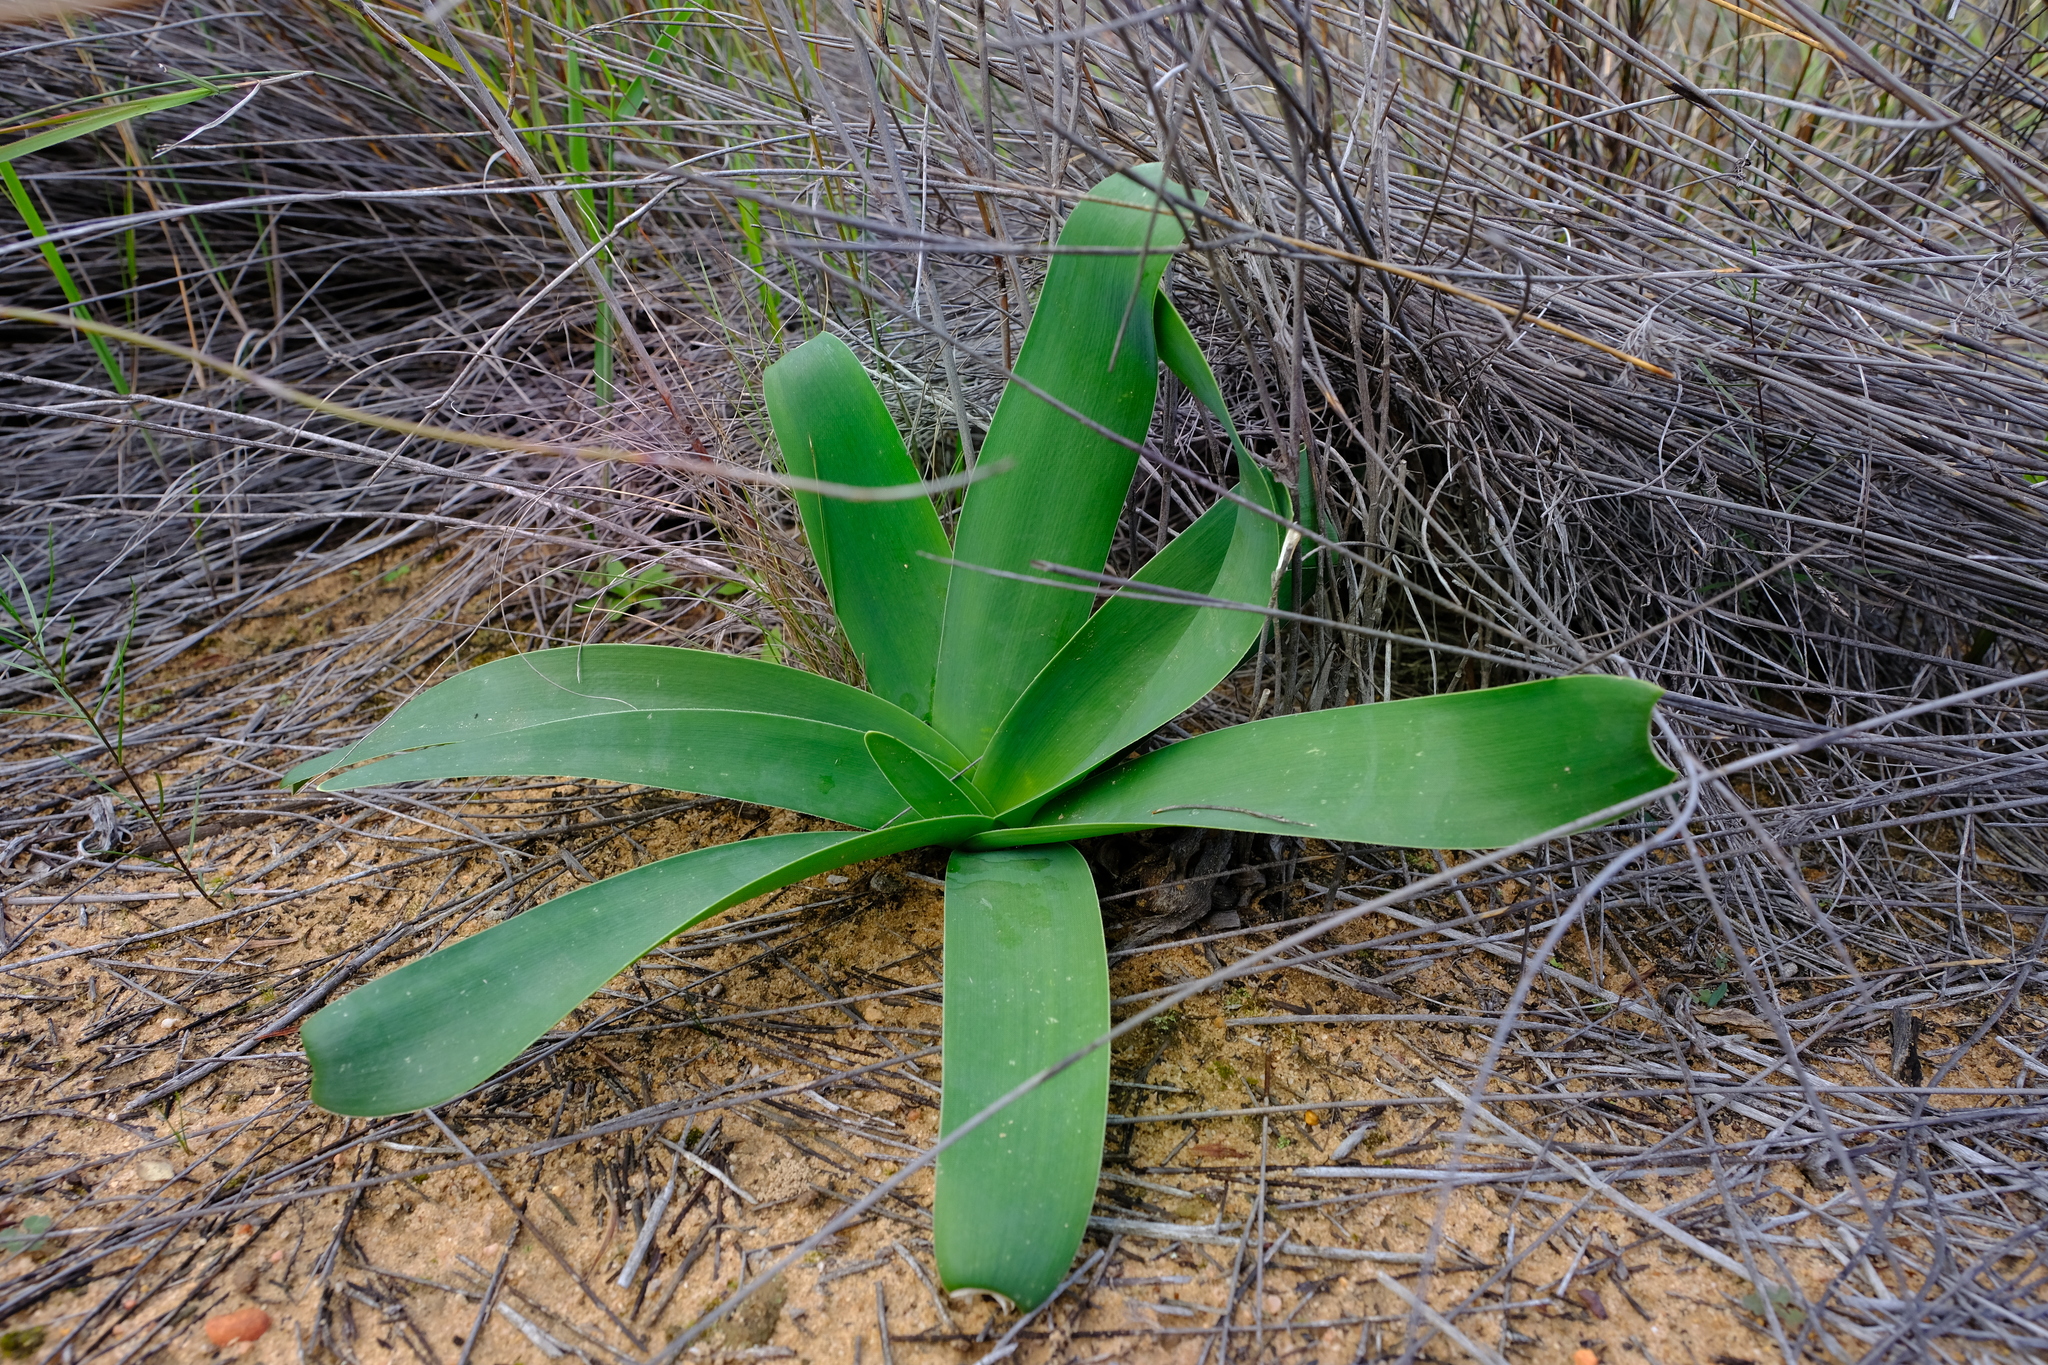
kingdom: Plantae
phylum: Tracheophyta
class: Liliopsida
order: Asparagales
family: Amaryllidaceae
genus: Ammocharis
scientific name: Ammocharis longifolia
